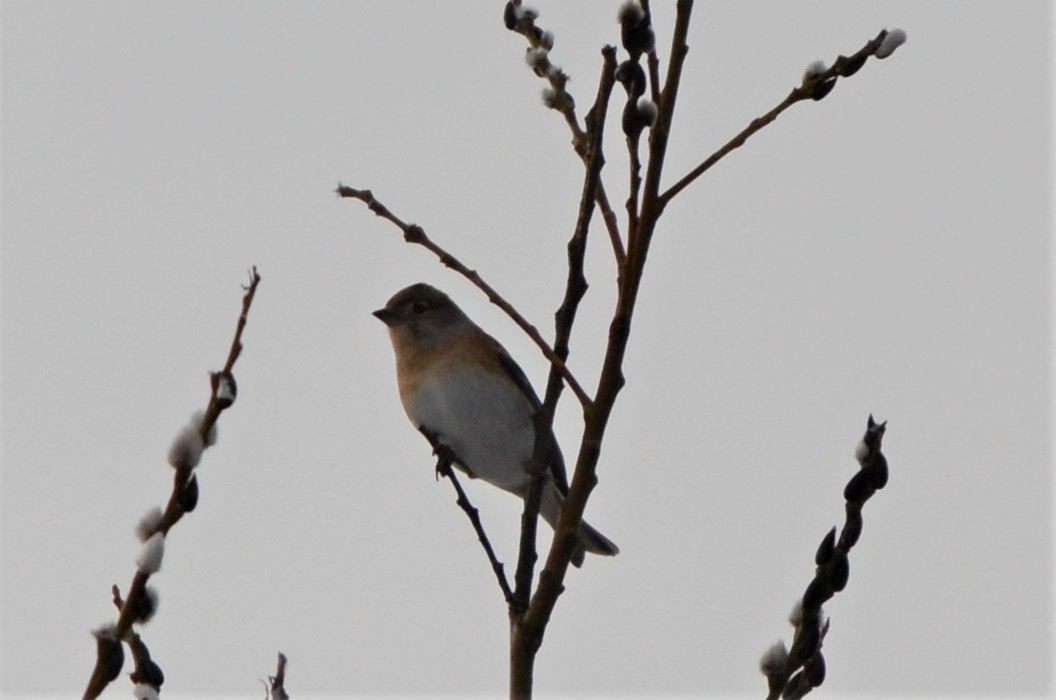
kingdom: Animalia
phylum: Chordata
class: Aves
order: Passeriformes
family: Fringillidae
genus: Fringilla
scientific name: Fringilla montifringilla
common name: Brambling
